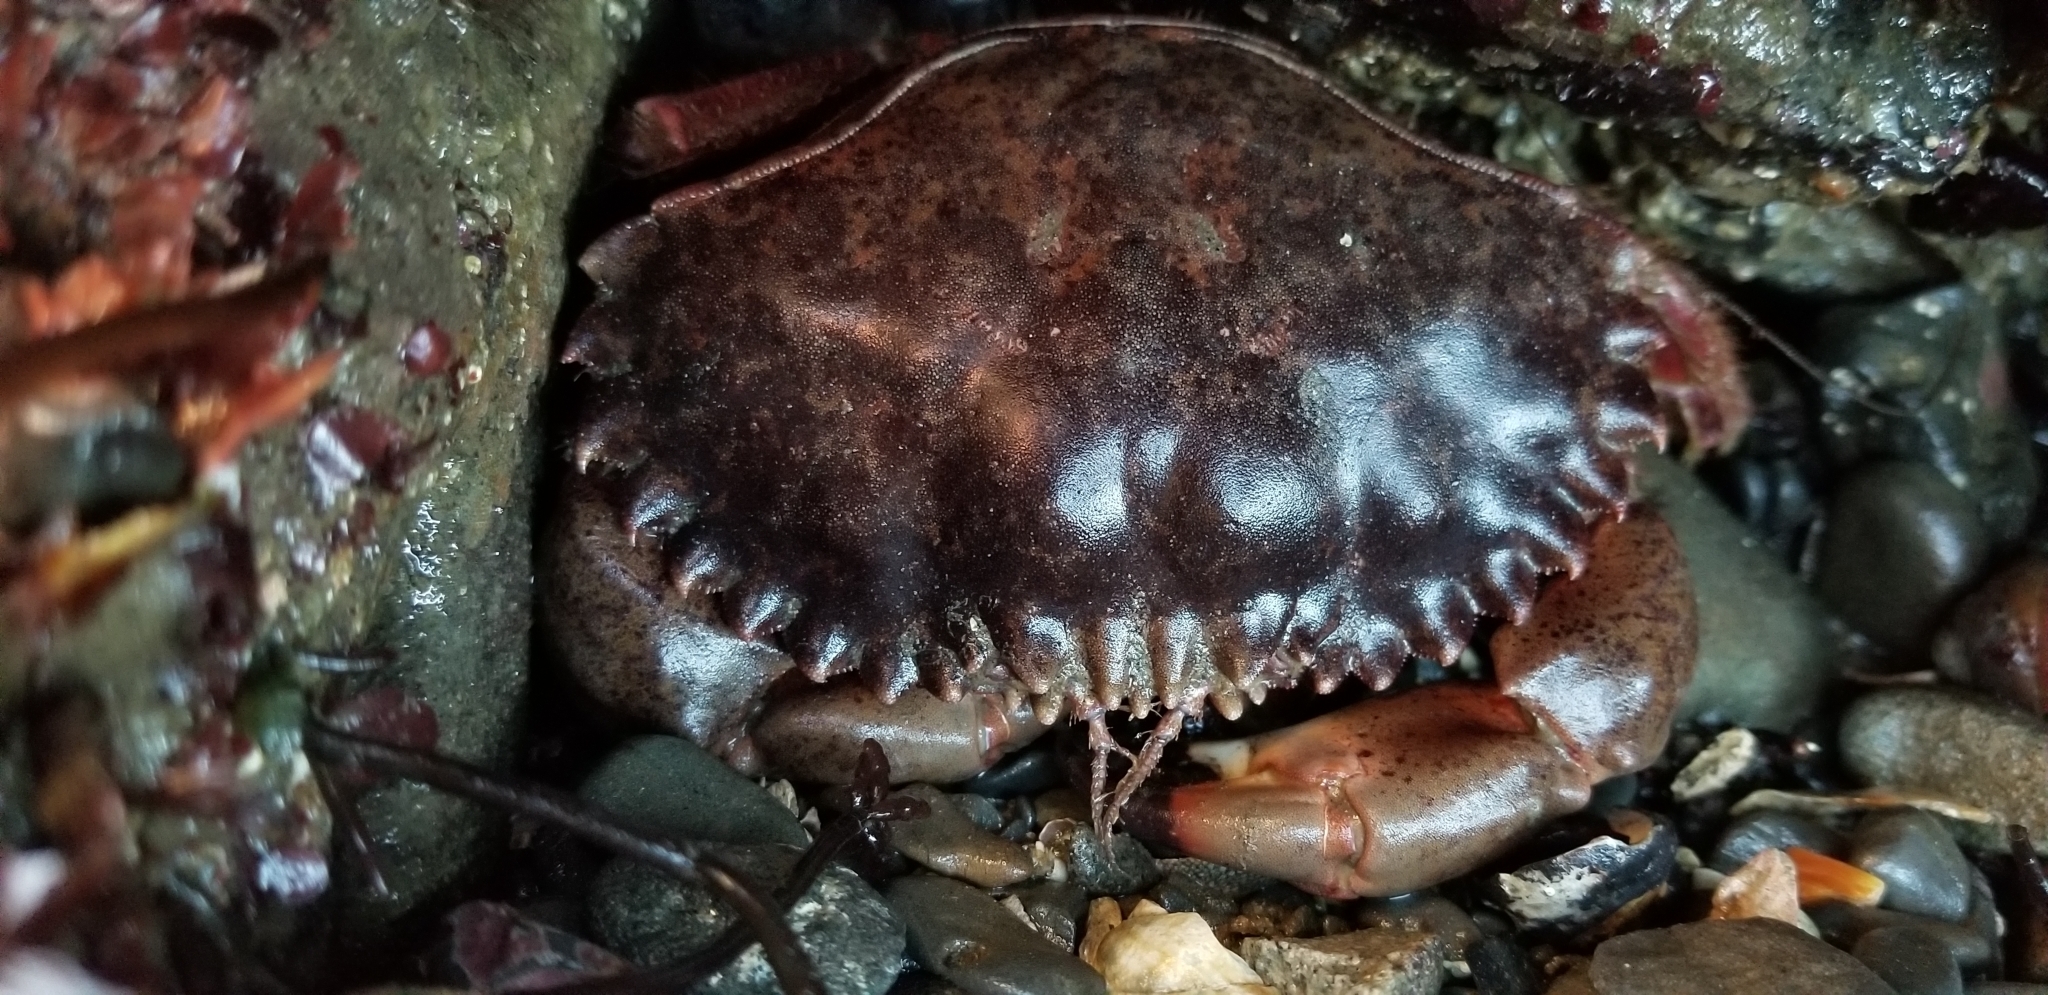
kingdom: Animalia
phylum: Arthropoda
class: Malacostraca
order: Decapoda
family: Cancridae
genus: Romaleon
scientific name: Romaleon antennarium
